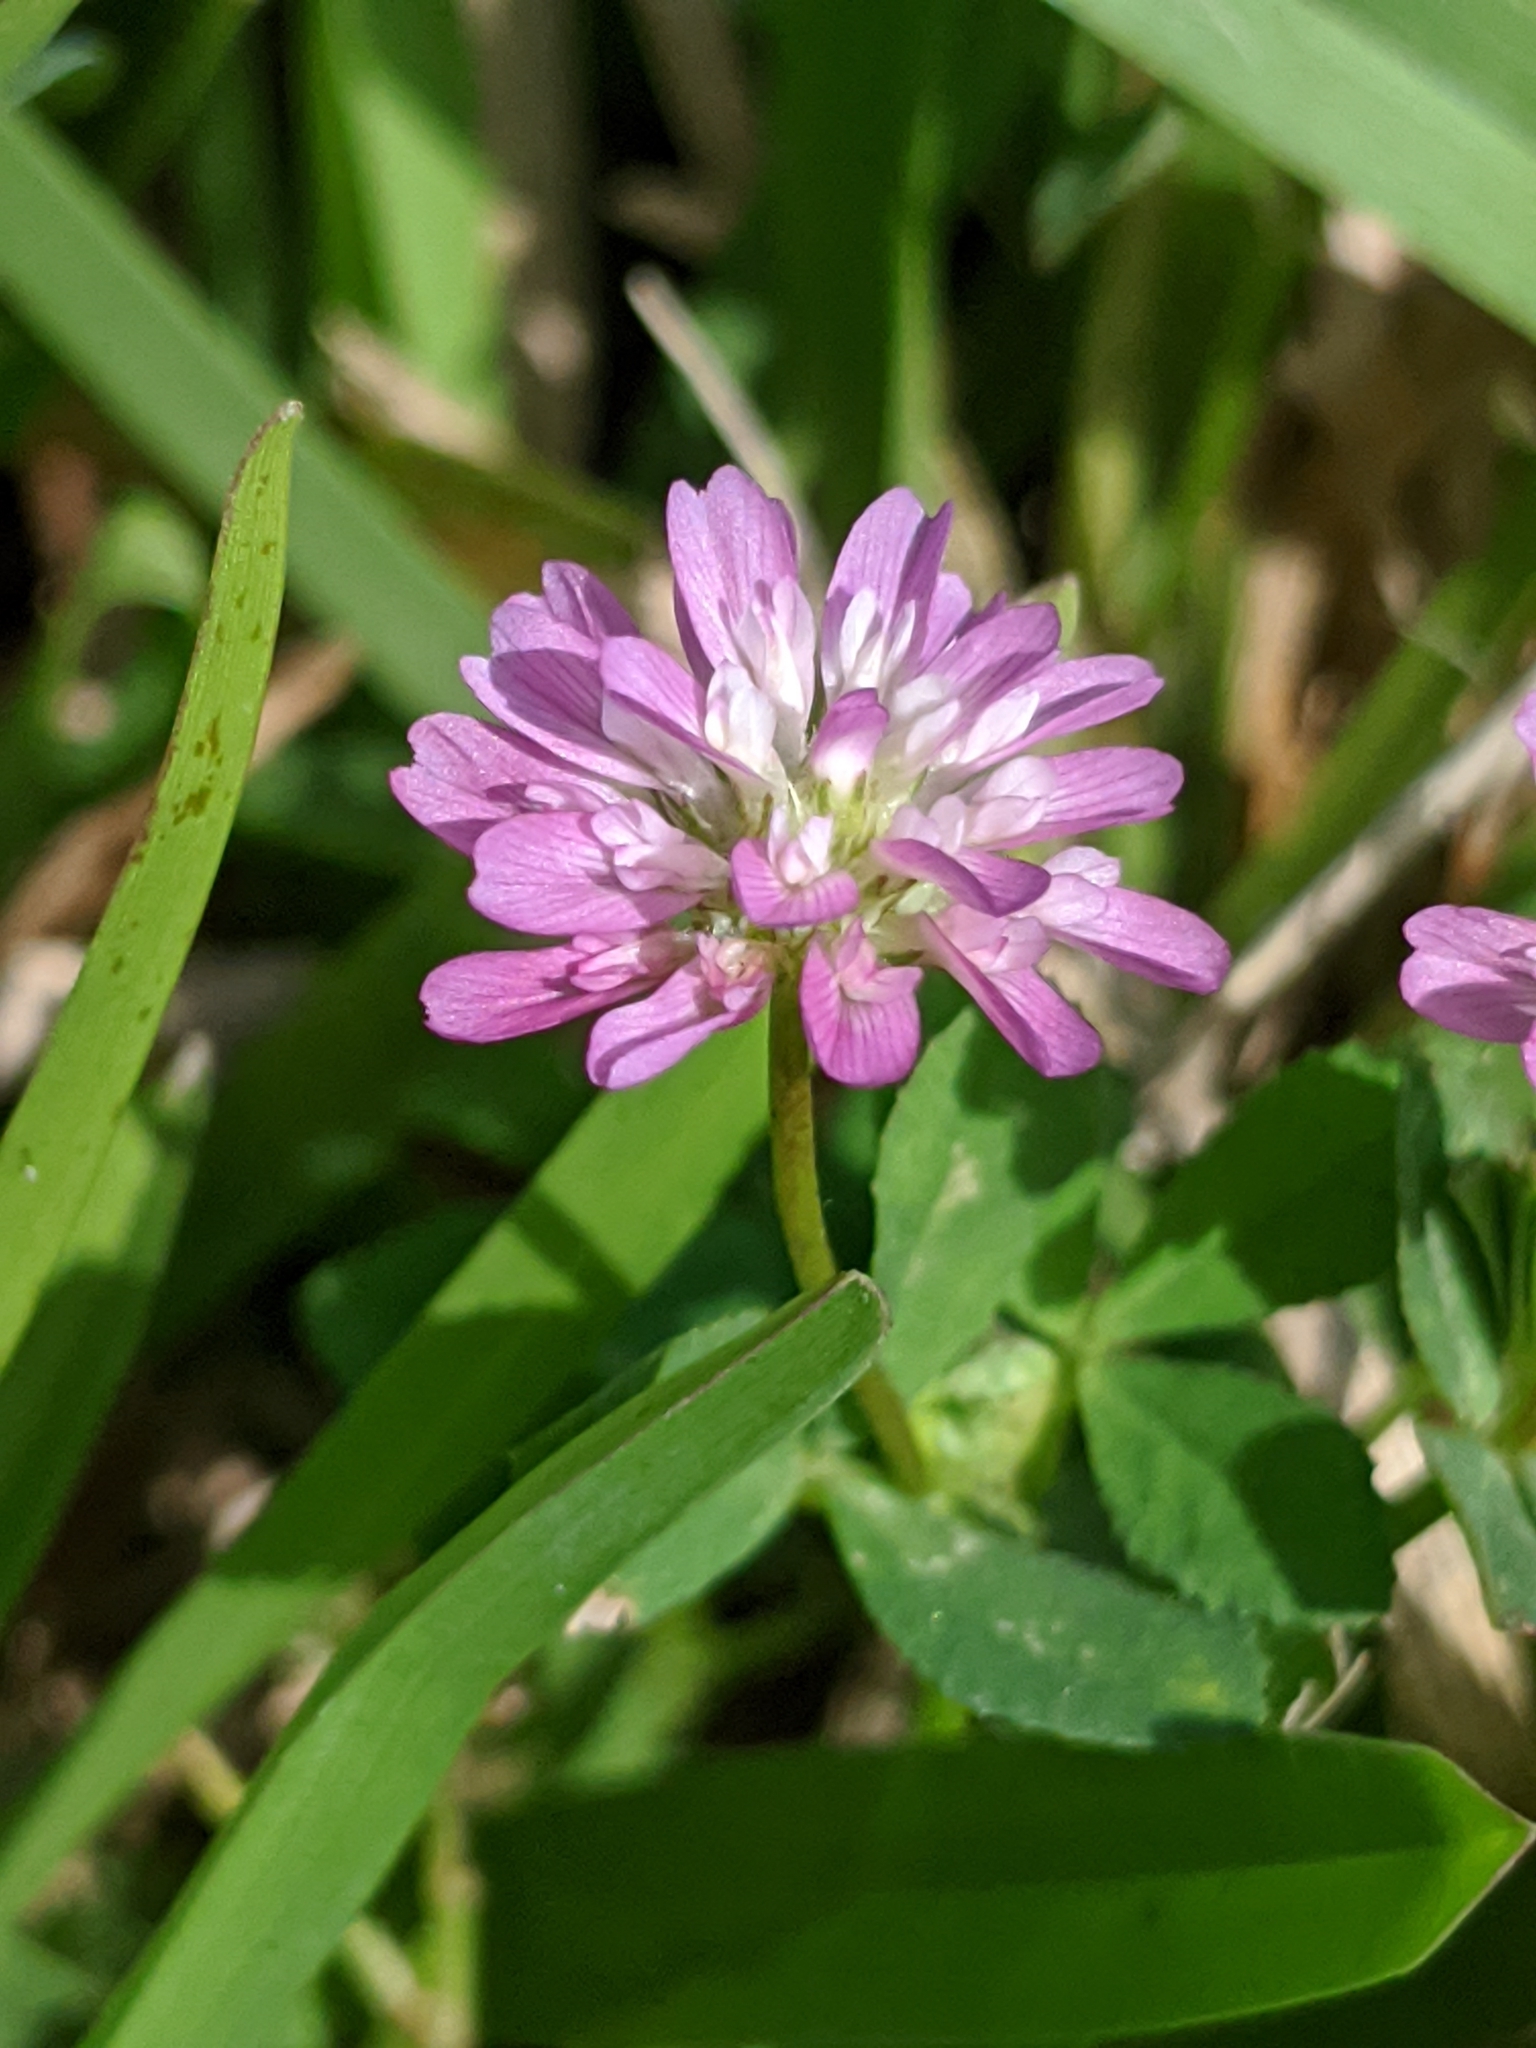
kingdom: Plantae
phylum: Tracheophyta
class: Magnoliopsida
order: Fabales
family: Fabaceae
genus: Trifolium
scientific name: Trifolium resupinatum
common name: Reversed clover
